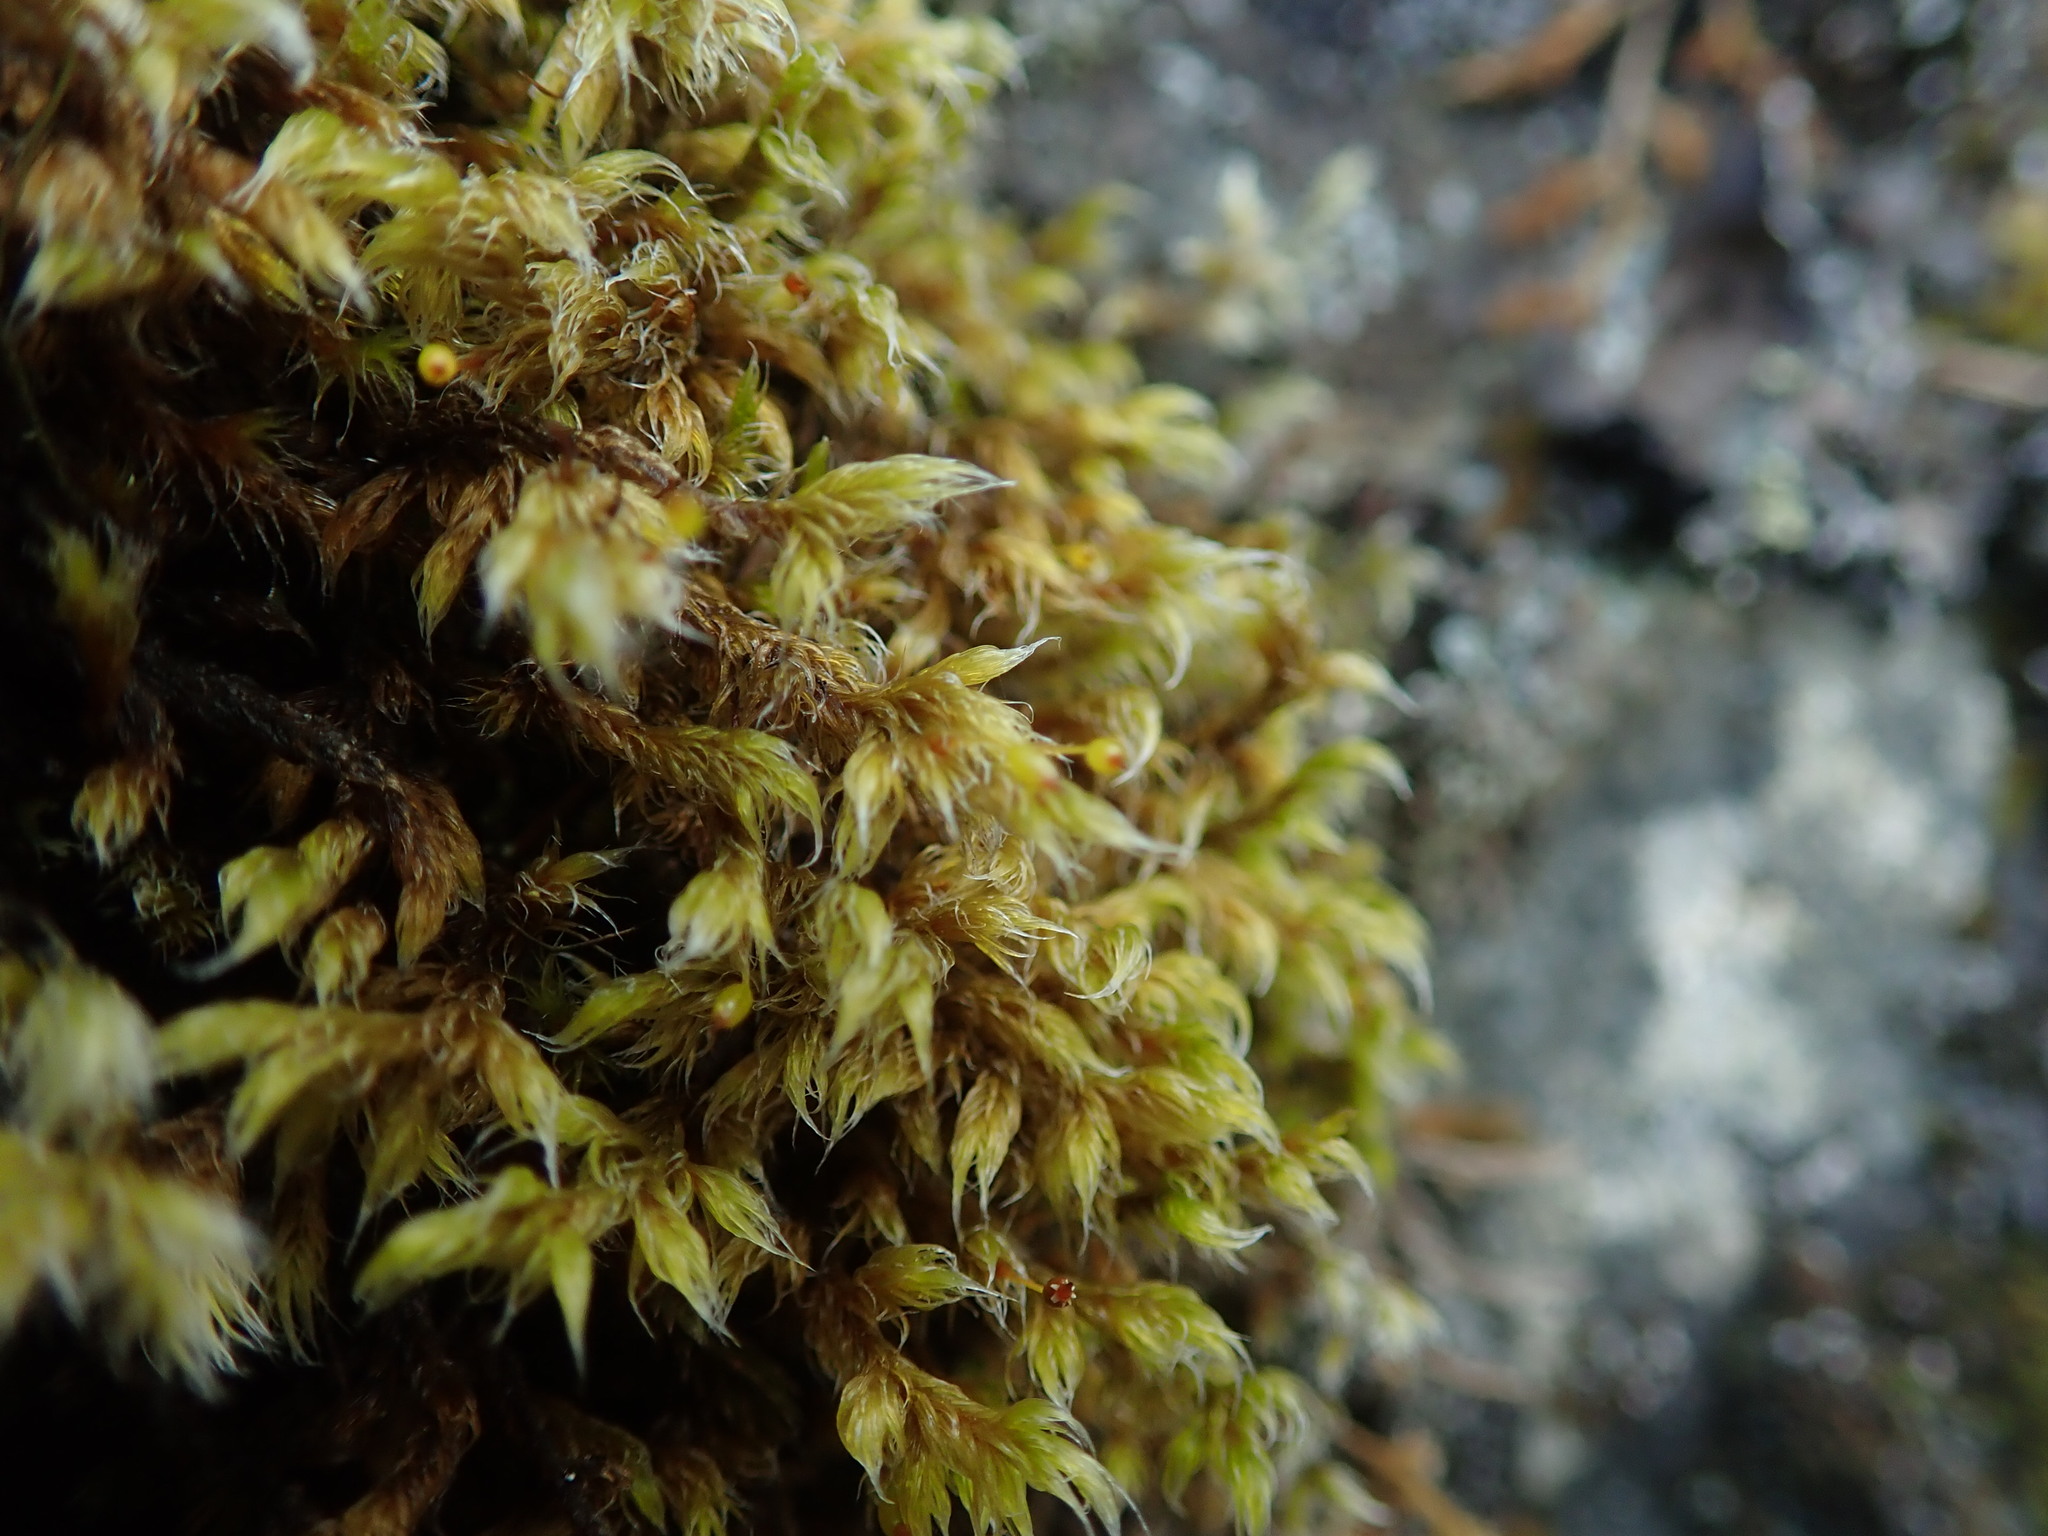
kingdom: Plantae
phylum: Bryophyta
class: Bryopsida
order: Grimmiales
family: Grimmiaceae
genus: Racomitrium
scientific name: Racomitrium lanuginosum
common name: Hoary rock moss
